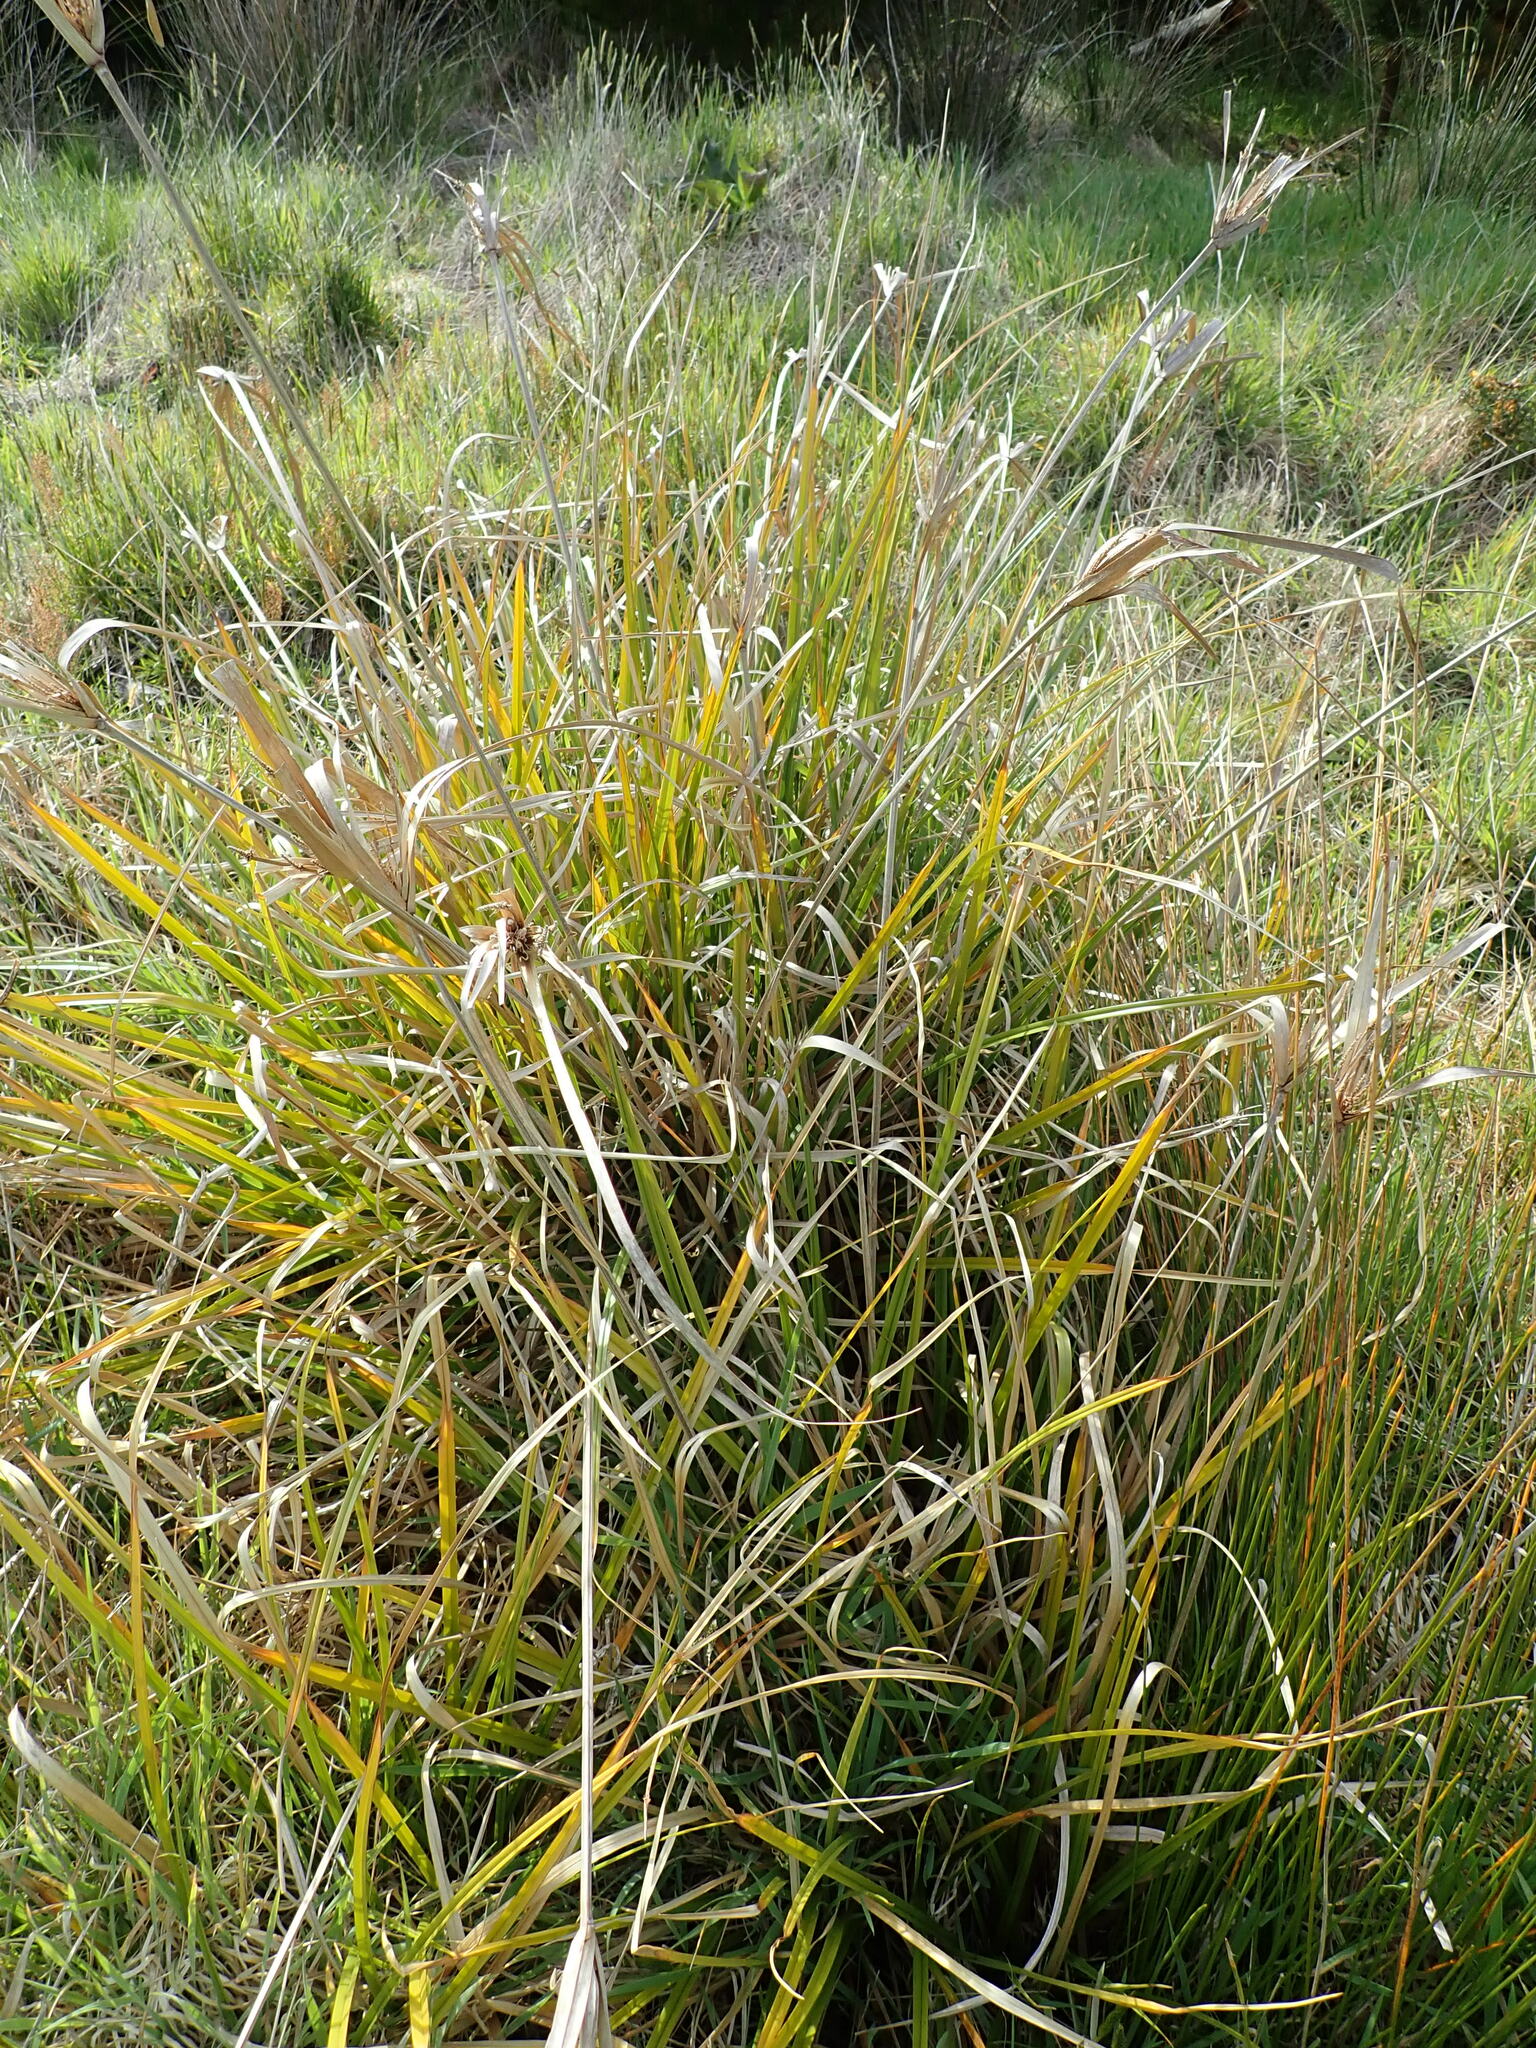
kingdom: Plantae
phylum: Tracheophyta
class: Liliopsida
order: Poales
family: Cyperaceae
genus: Cyperus
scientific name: Cyperus ustulatus
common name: Giant umbrella-sedge
